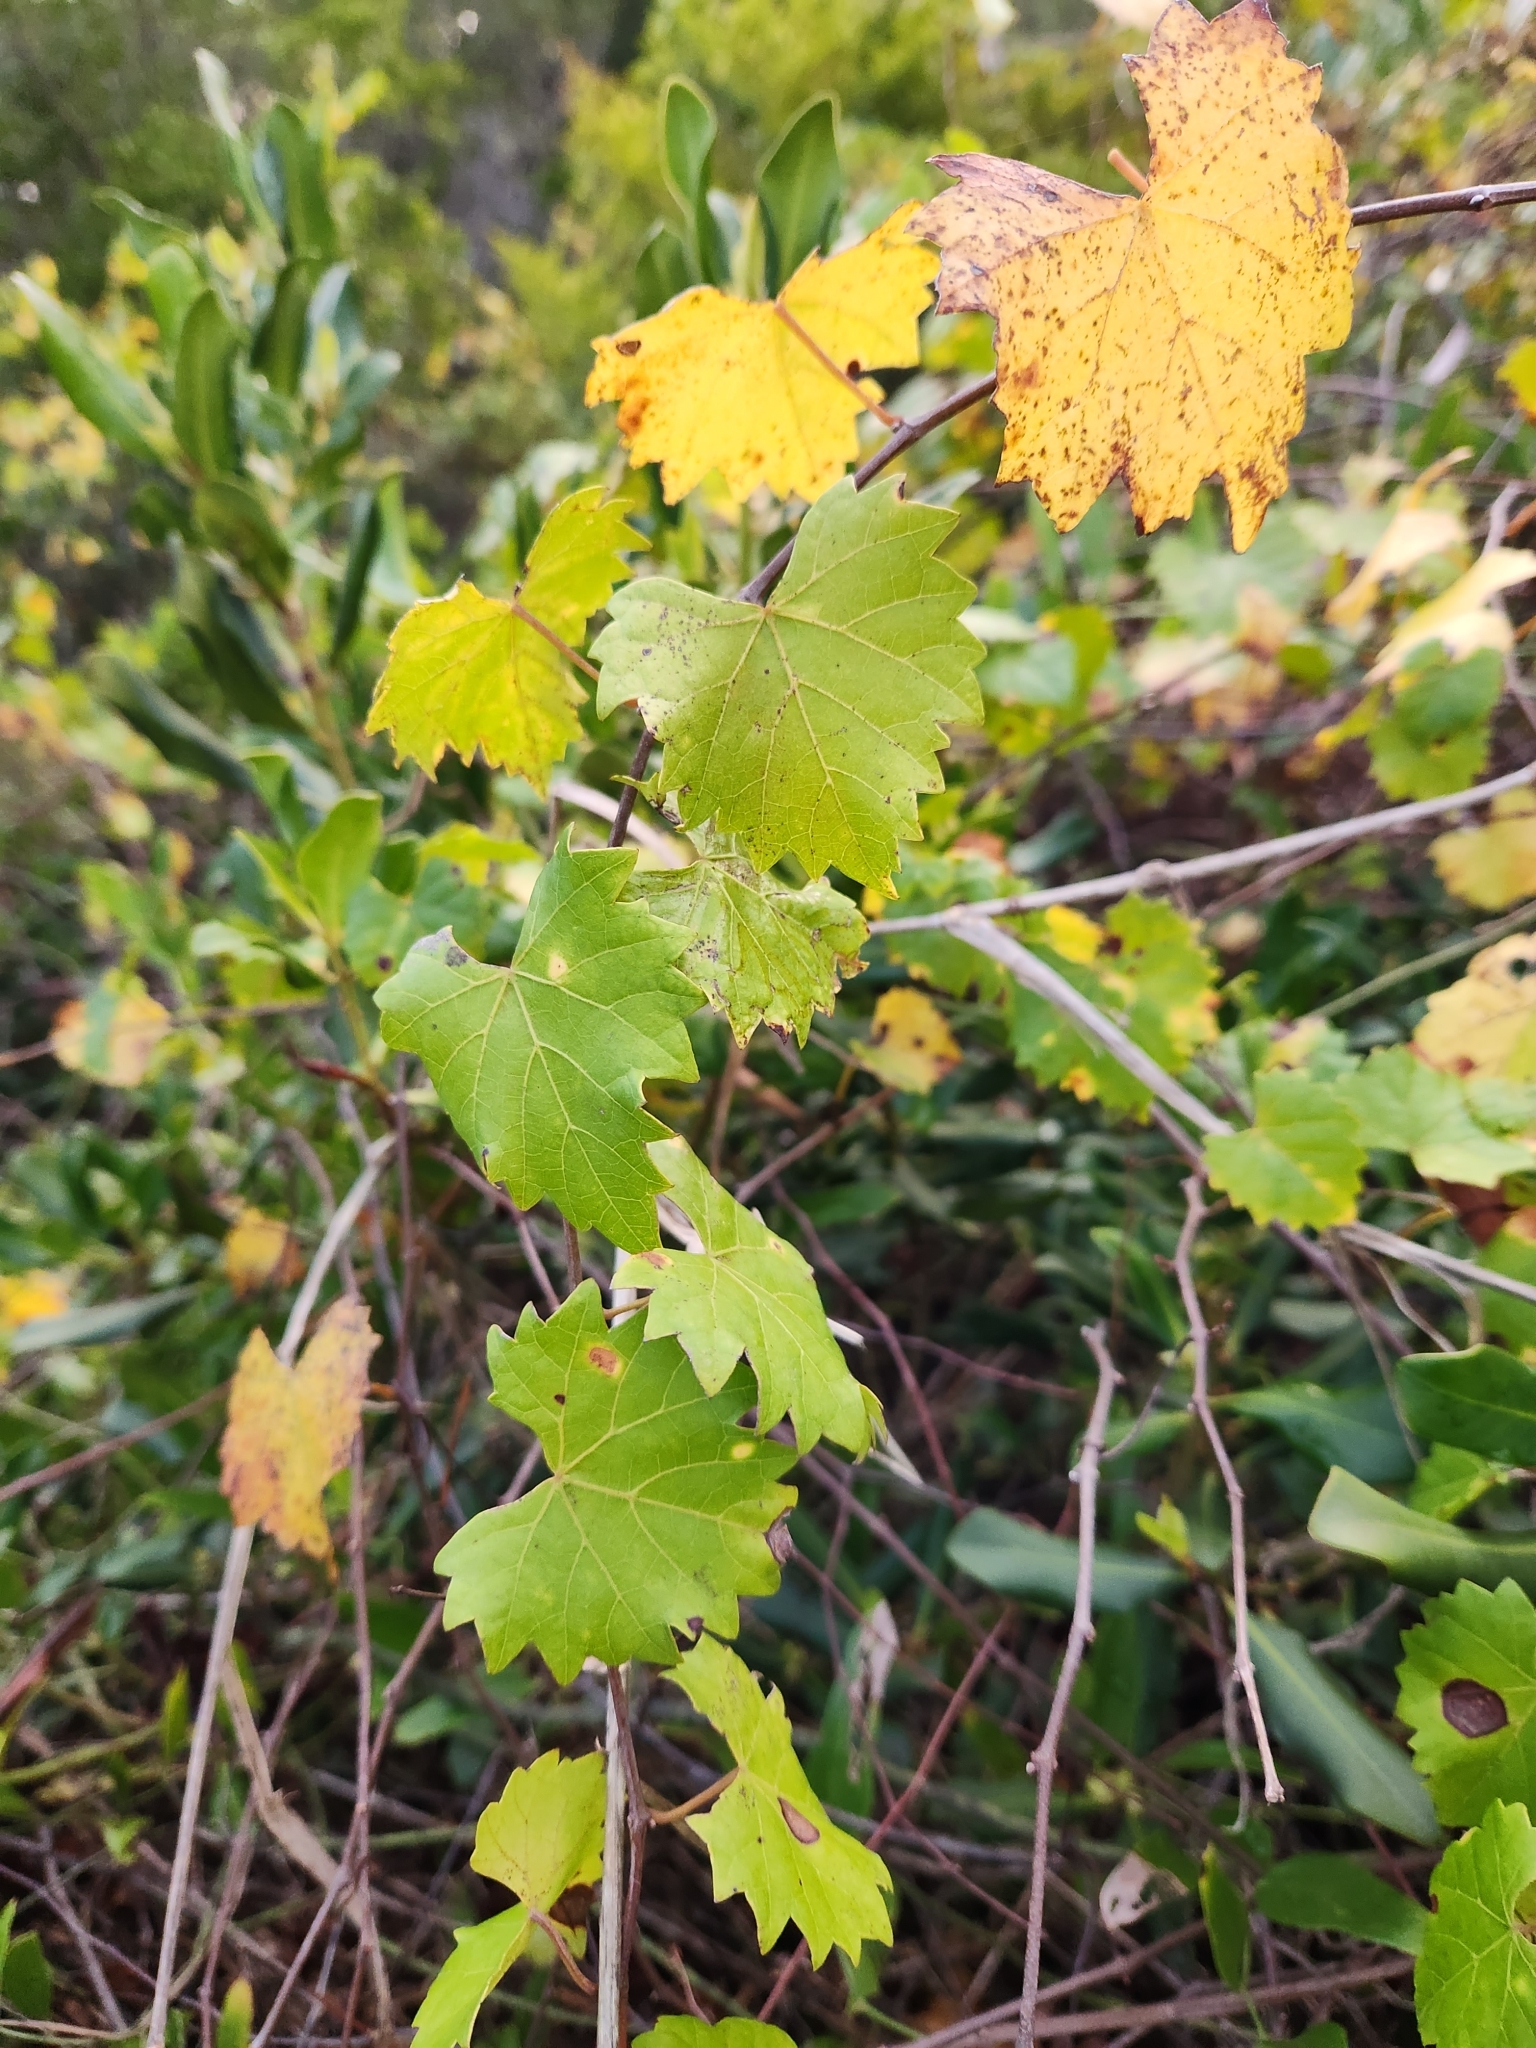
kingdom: Plantae
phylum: Tracheophyta
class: Magnoliopsida
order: Vitales
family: Vitaceae
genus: Vitis
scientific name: Vitis rotundifolia
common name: Muscadine grape
